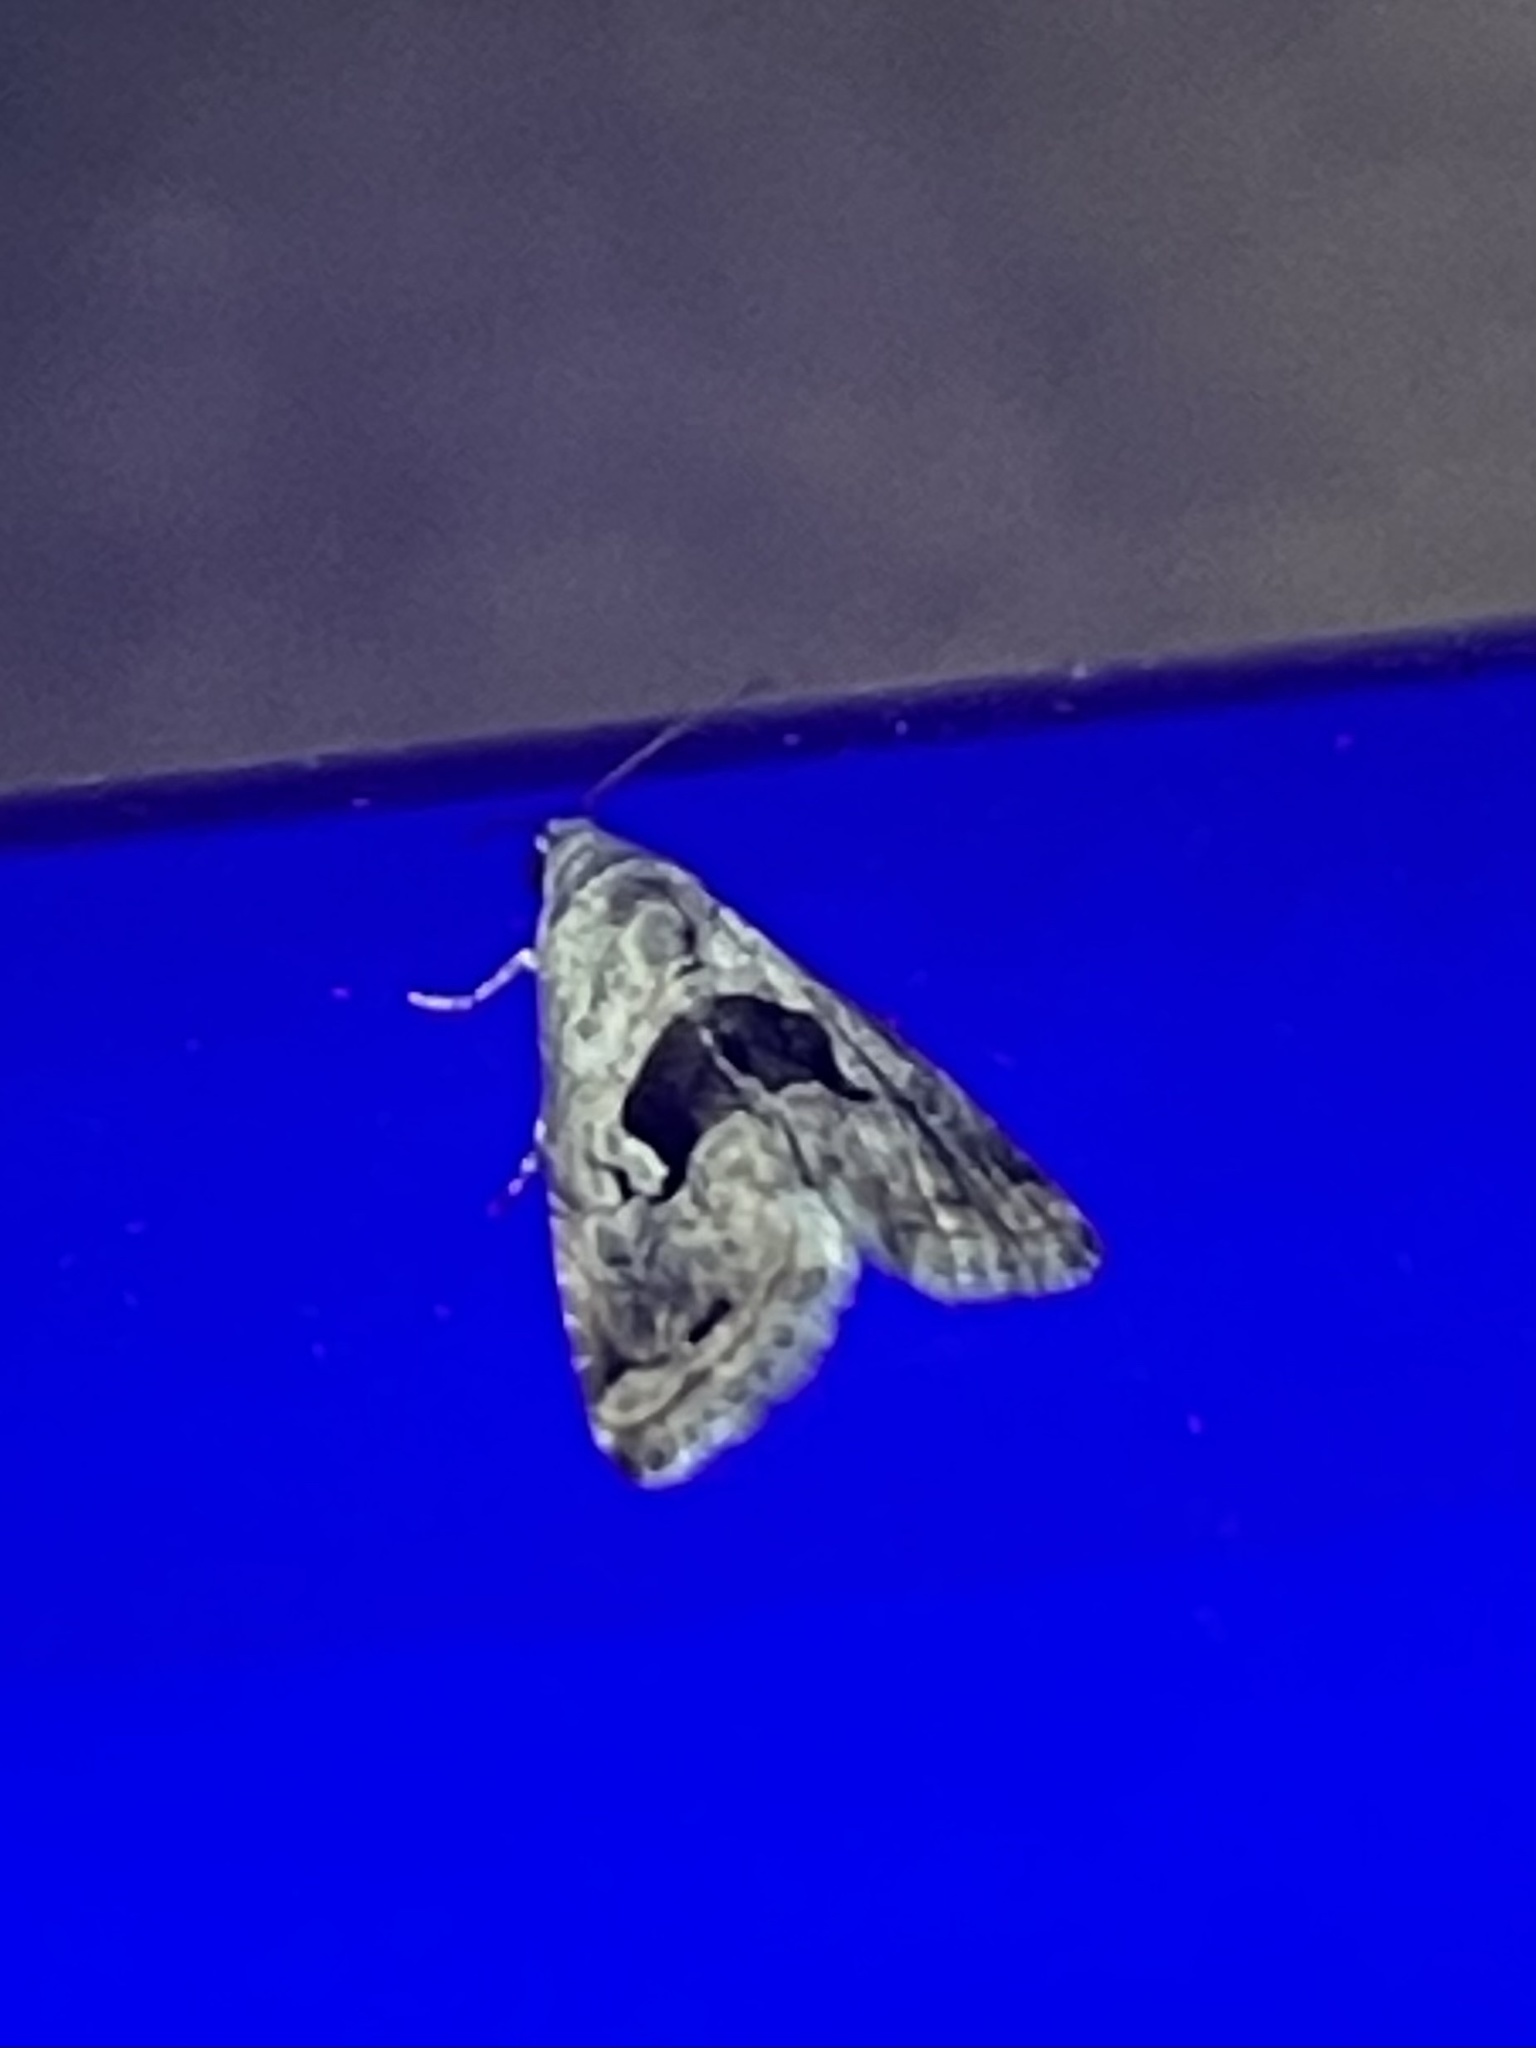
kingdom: Animalia
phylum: Arthropoda
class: Insecta
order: Lepidoptera
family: Noctuidae
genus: Tripudia
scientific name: Tripudia quadrifera
